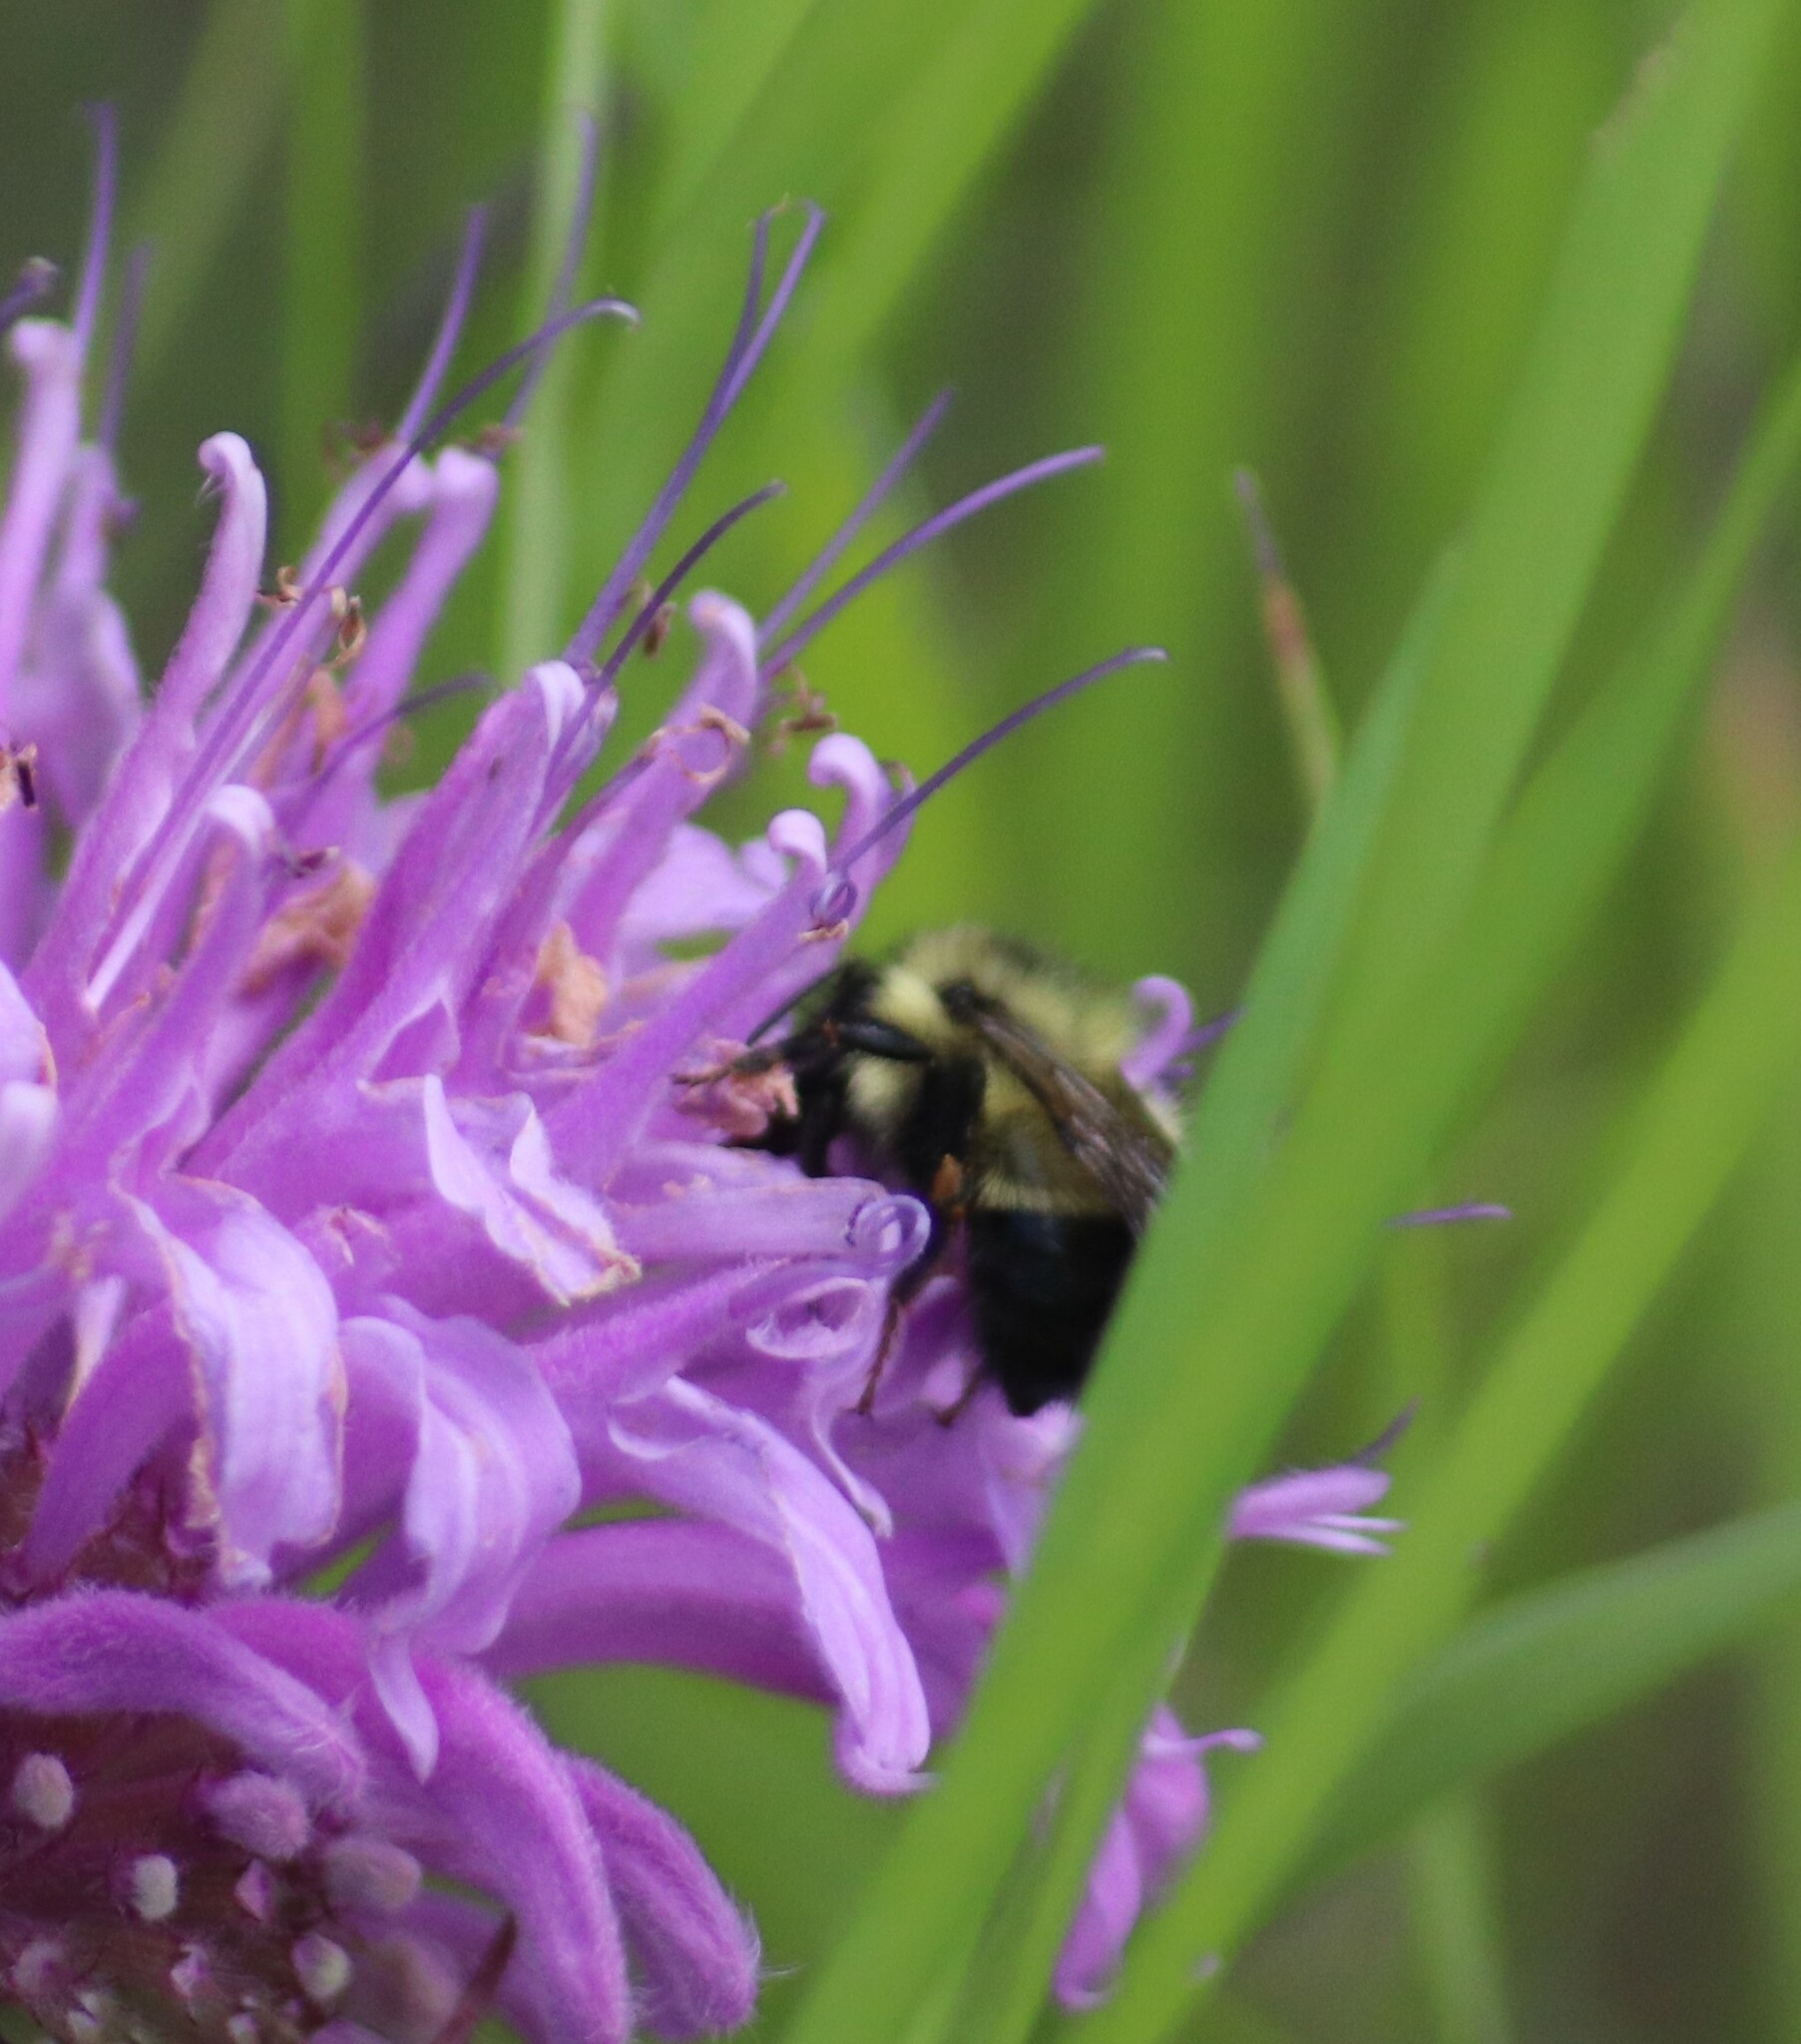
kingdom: Animalia
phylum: Arthropoda
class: Insecta
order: Hymenoptera
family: Apidae
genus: Pyrobombus
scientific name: Pyrobombus
